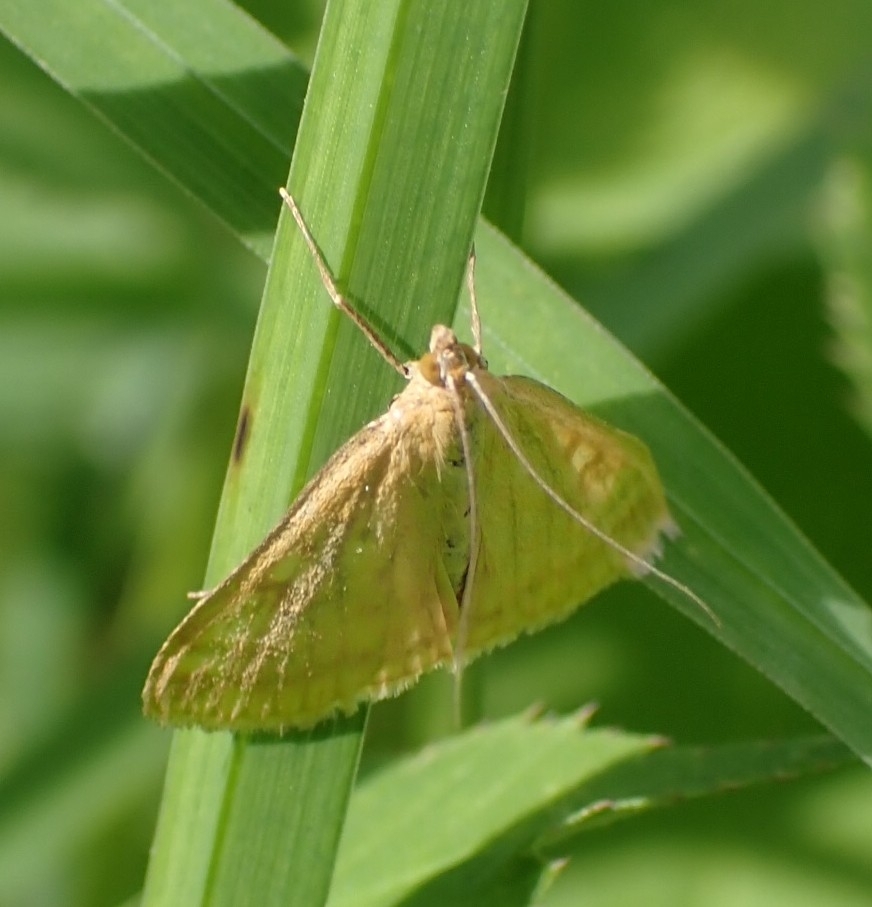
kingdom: Animalia
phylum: Arthropoda
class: Insecta
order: Lepidoptera
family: Crambidae
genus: Sitochroa
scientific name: Sitochroa verticalis
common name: Lesser pearl
